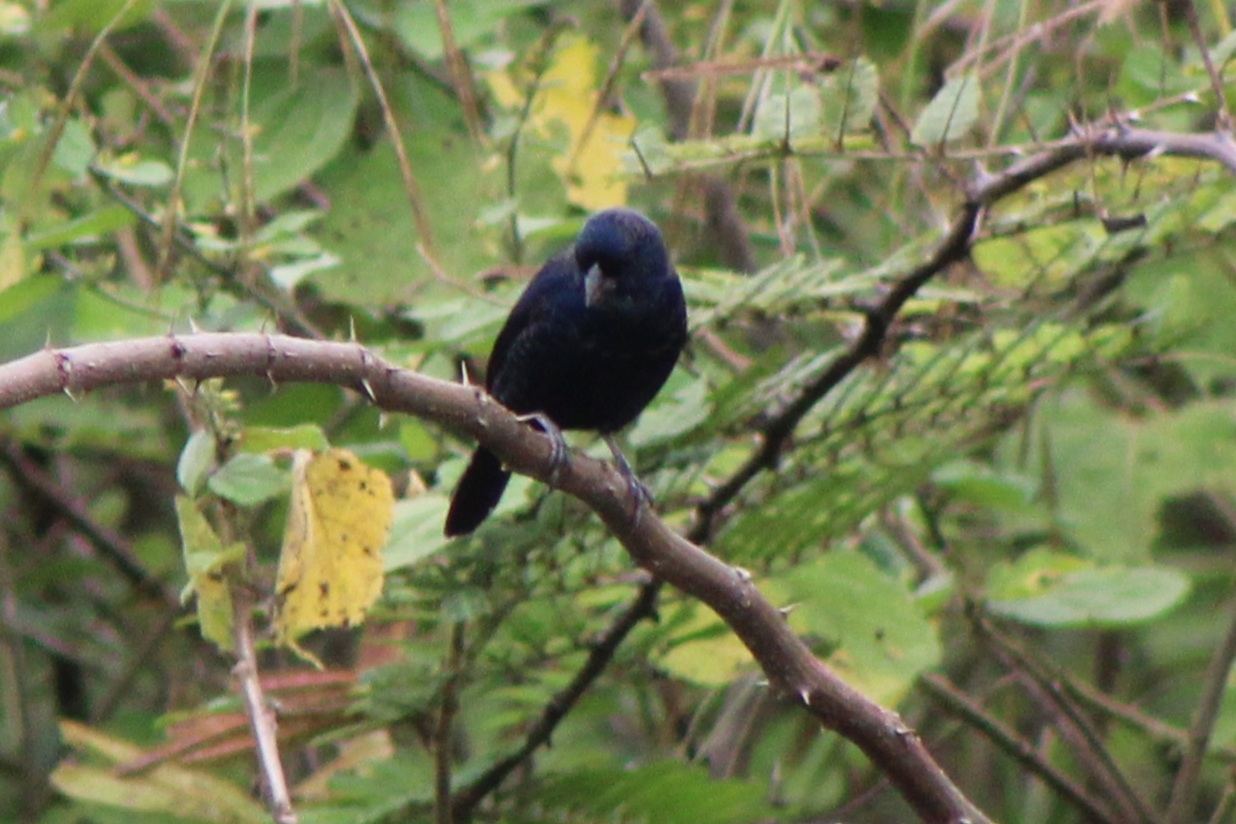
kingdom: Animalia
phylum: Chordata
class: Aves
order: Passeriformes
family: Thraupidae
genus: Volatinia
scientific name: Volatinia jacarina
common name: Blue-black grassquit
